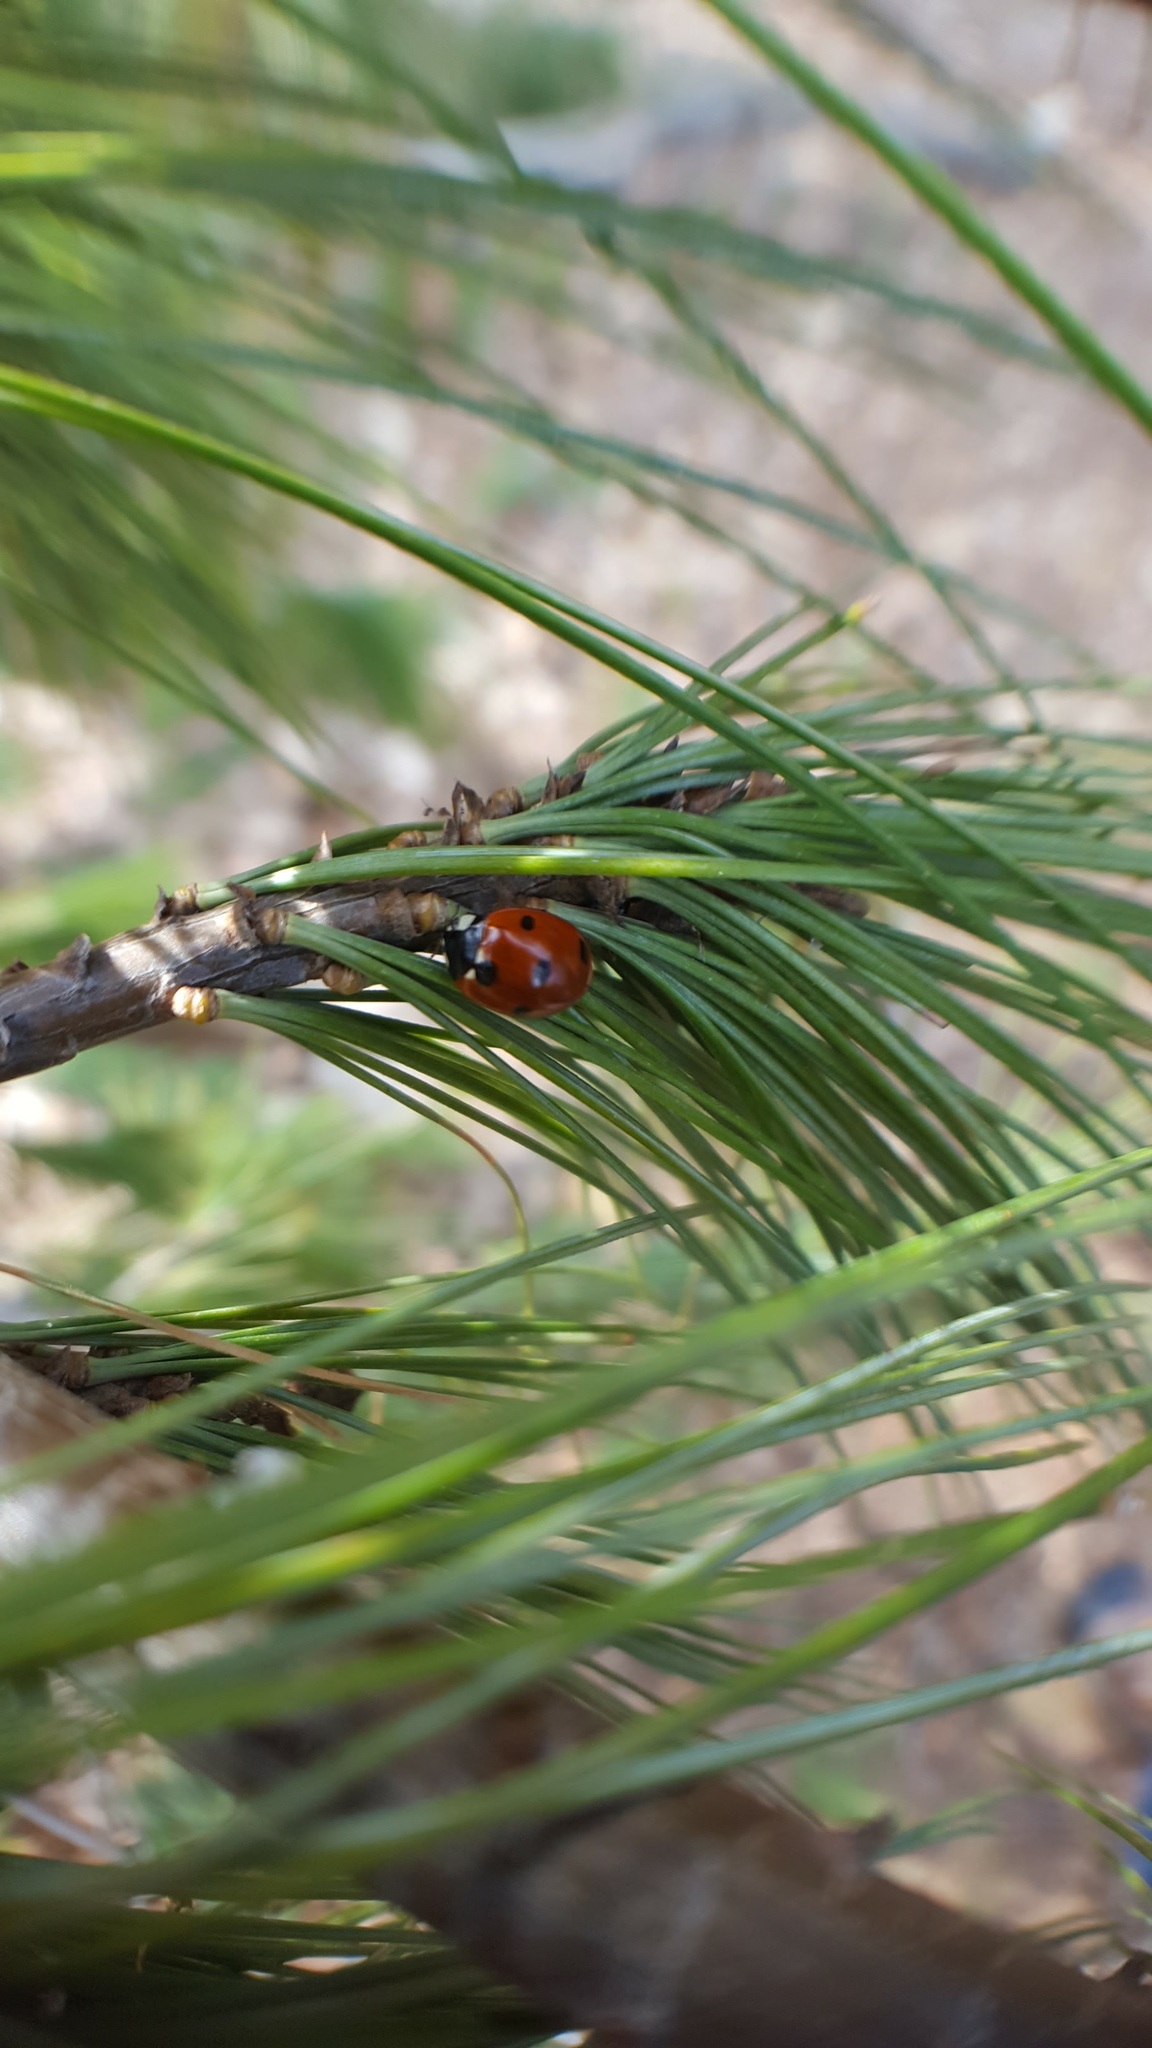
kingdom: Animalia
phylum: Arthropoda
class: Insecta
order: Coleoptera
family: Coccinellidae
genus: Coccinella
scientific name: Coccinella septempunctata
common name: Sevenspotted lady beetle
